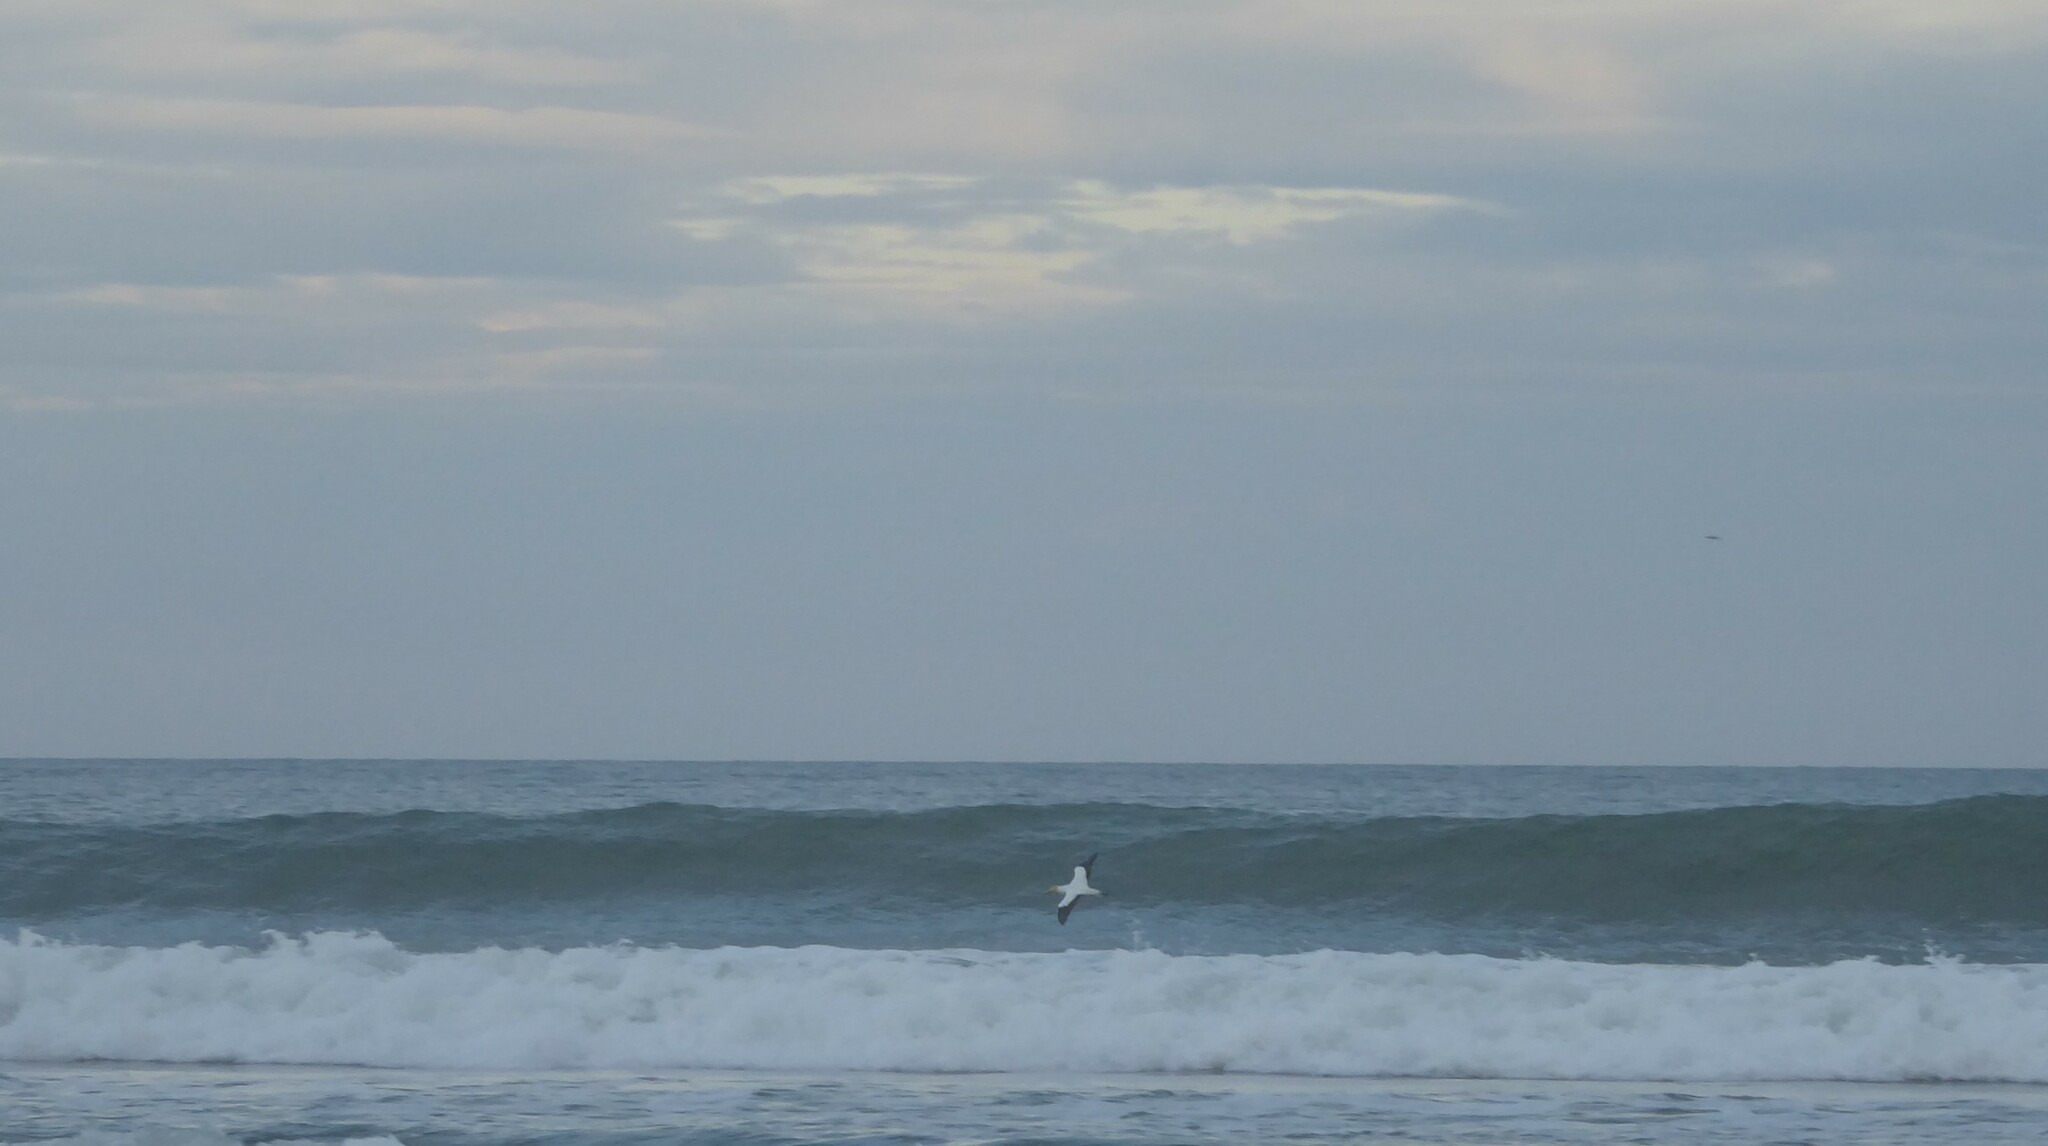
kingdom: Animalia
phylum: Chordata
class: Aves
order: Suliformes
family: Sulidae
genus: Morus
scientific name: Morus serrator
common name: Australasian gannet
